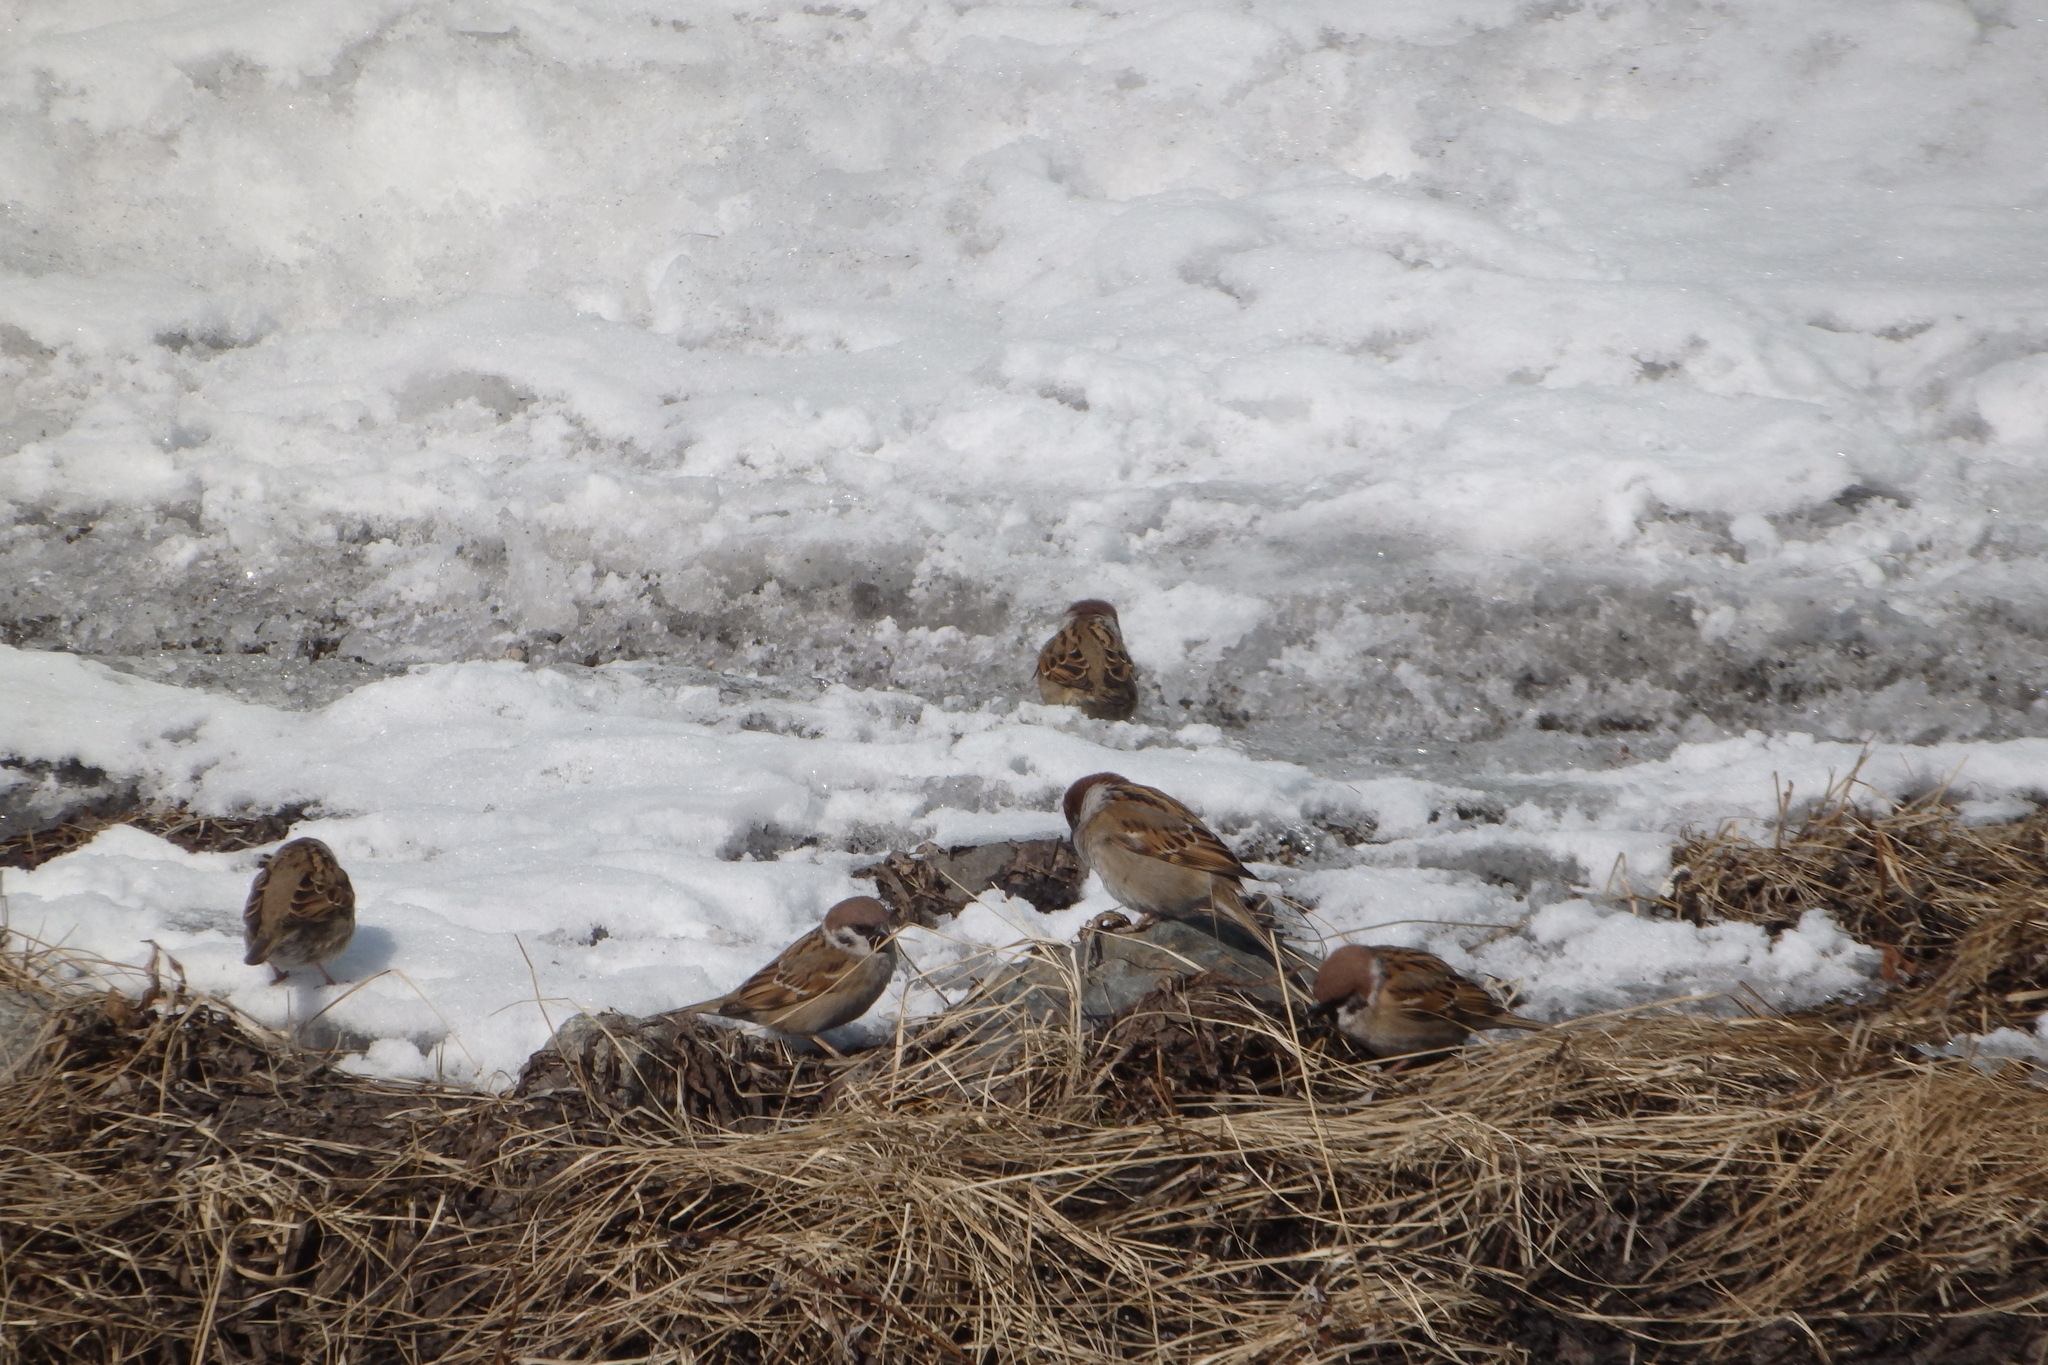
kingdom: Animalia
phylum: Chordata
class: Aves
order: Passeriformes
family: Passeridae
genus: Passer
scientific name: Passer montanus
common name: Eurasian tree sparrow
